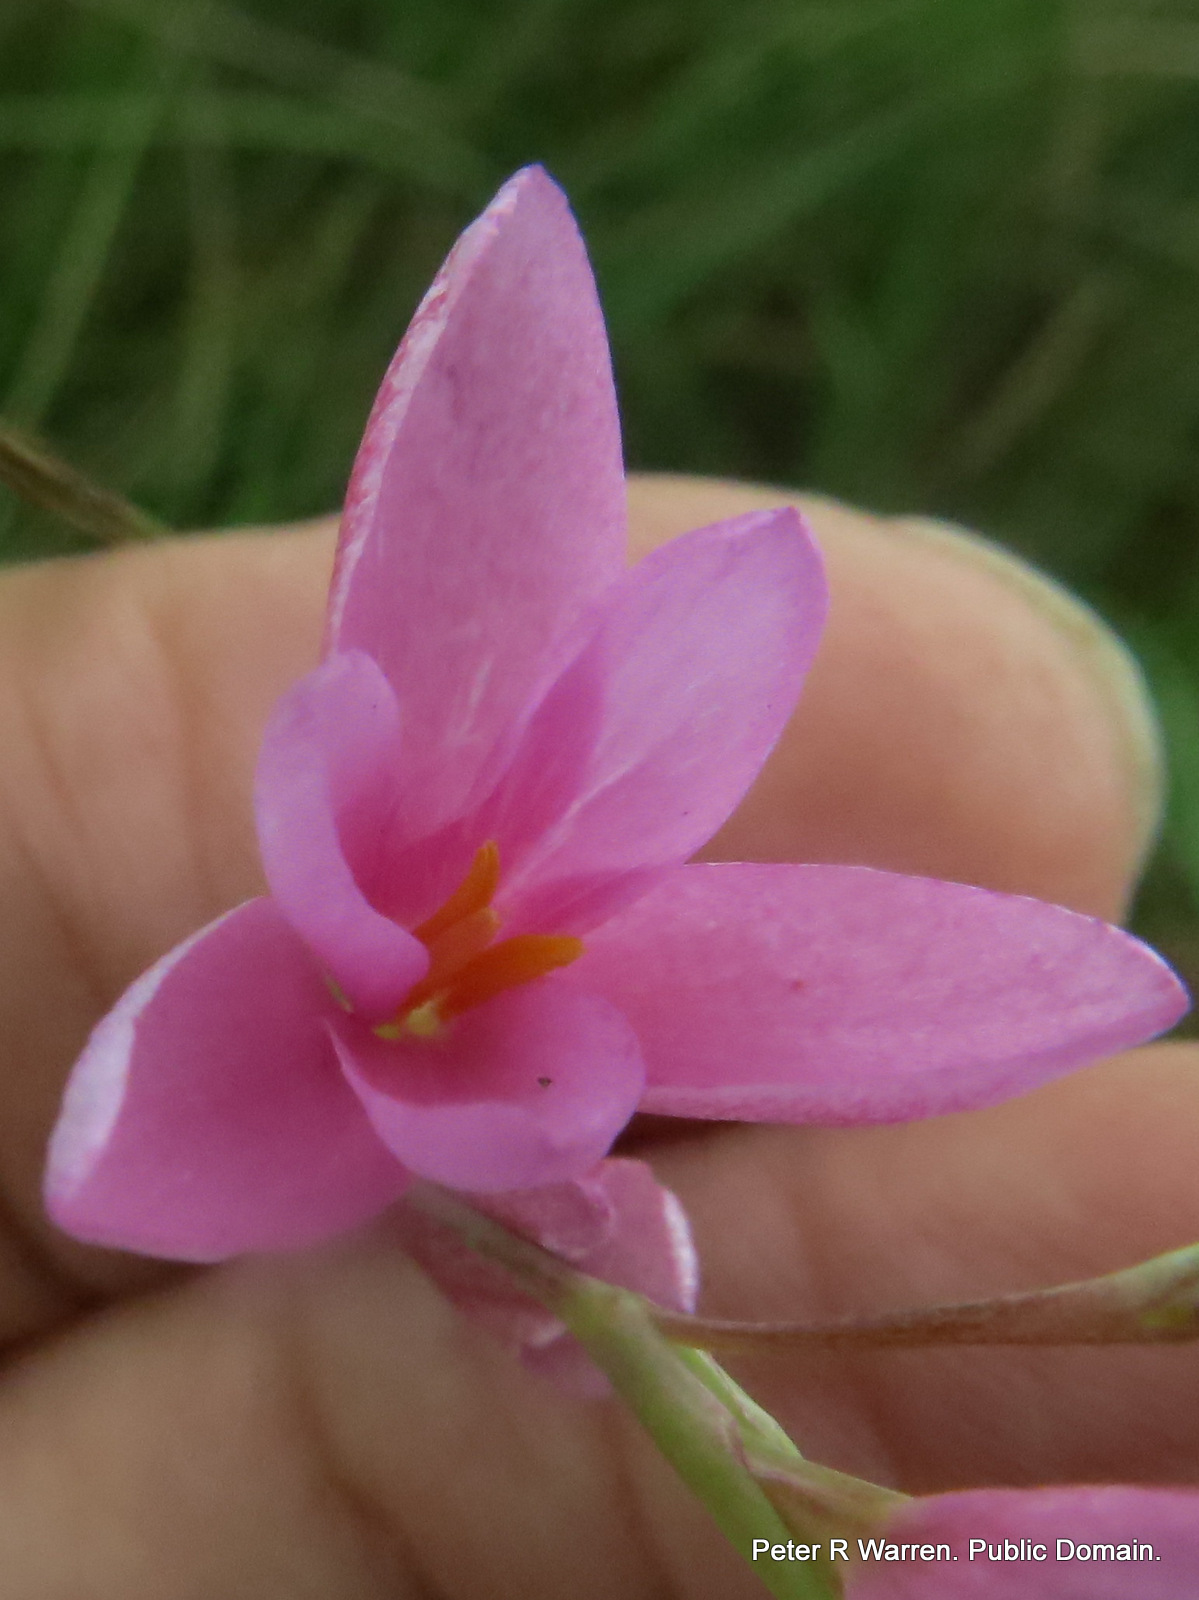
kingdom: Plantae
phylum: Tracheophyta
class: Liliopsida
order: Asparagales
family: Iridaceae
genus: Hesperantha
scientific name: Hesperantha baurii
